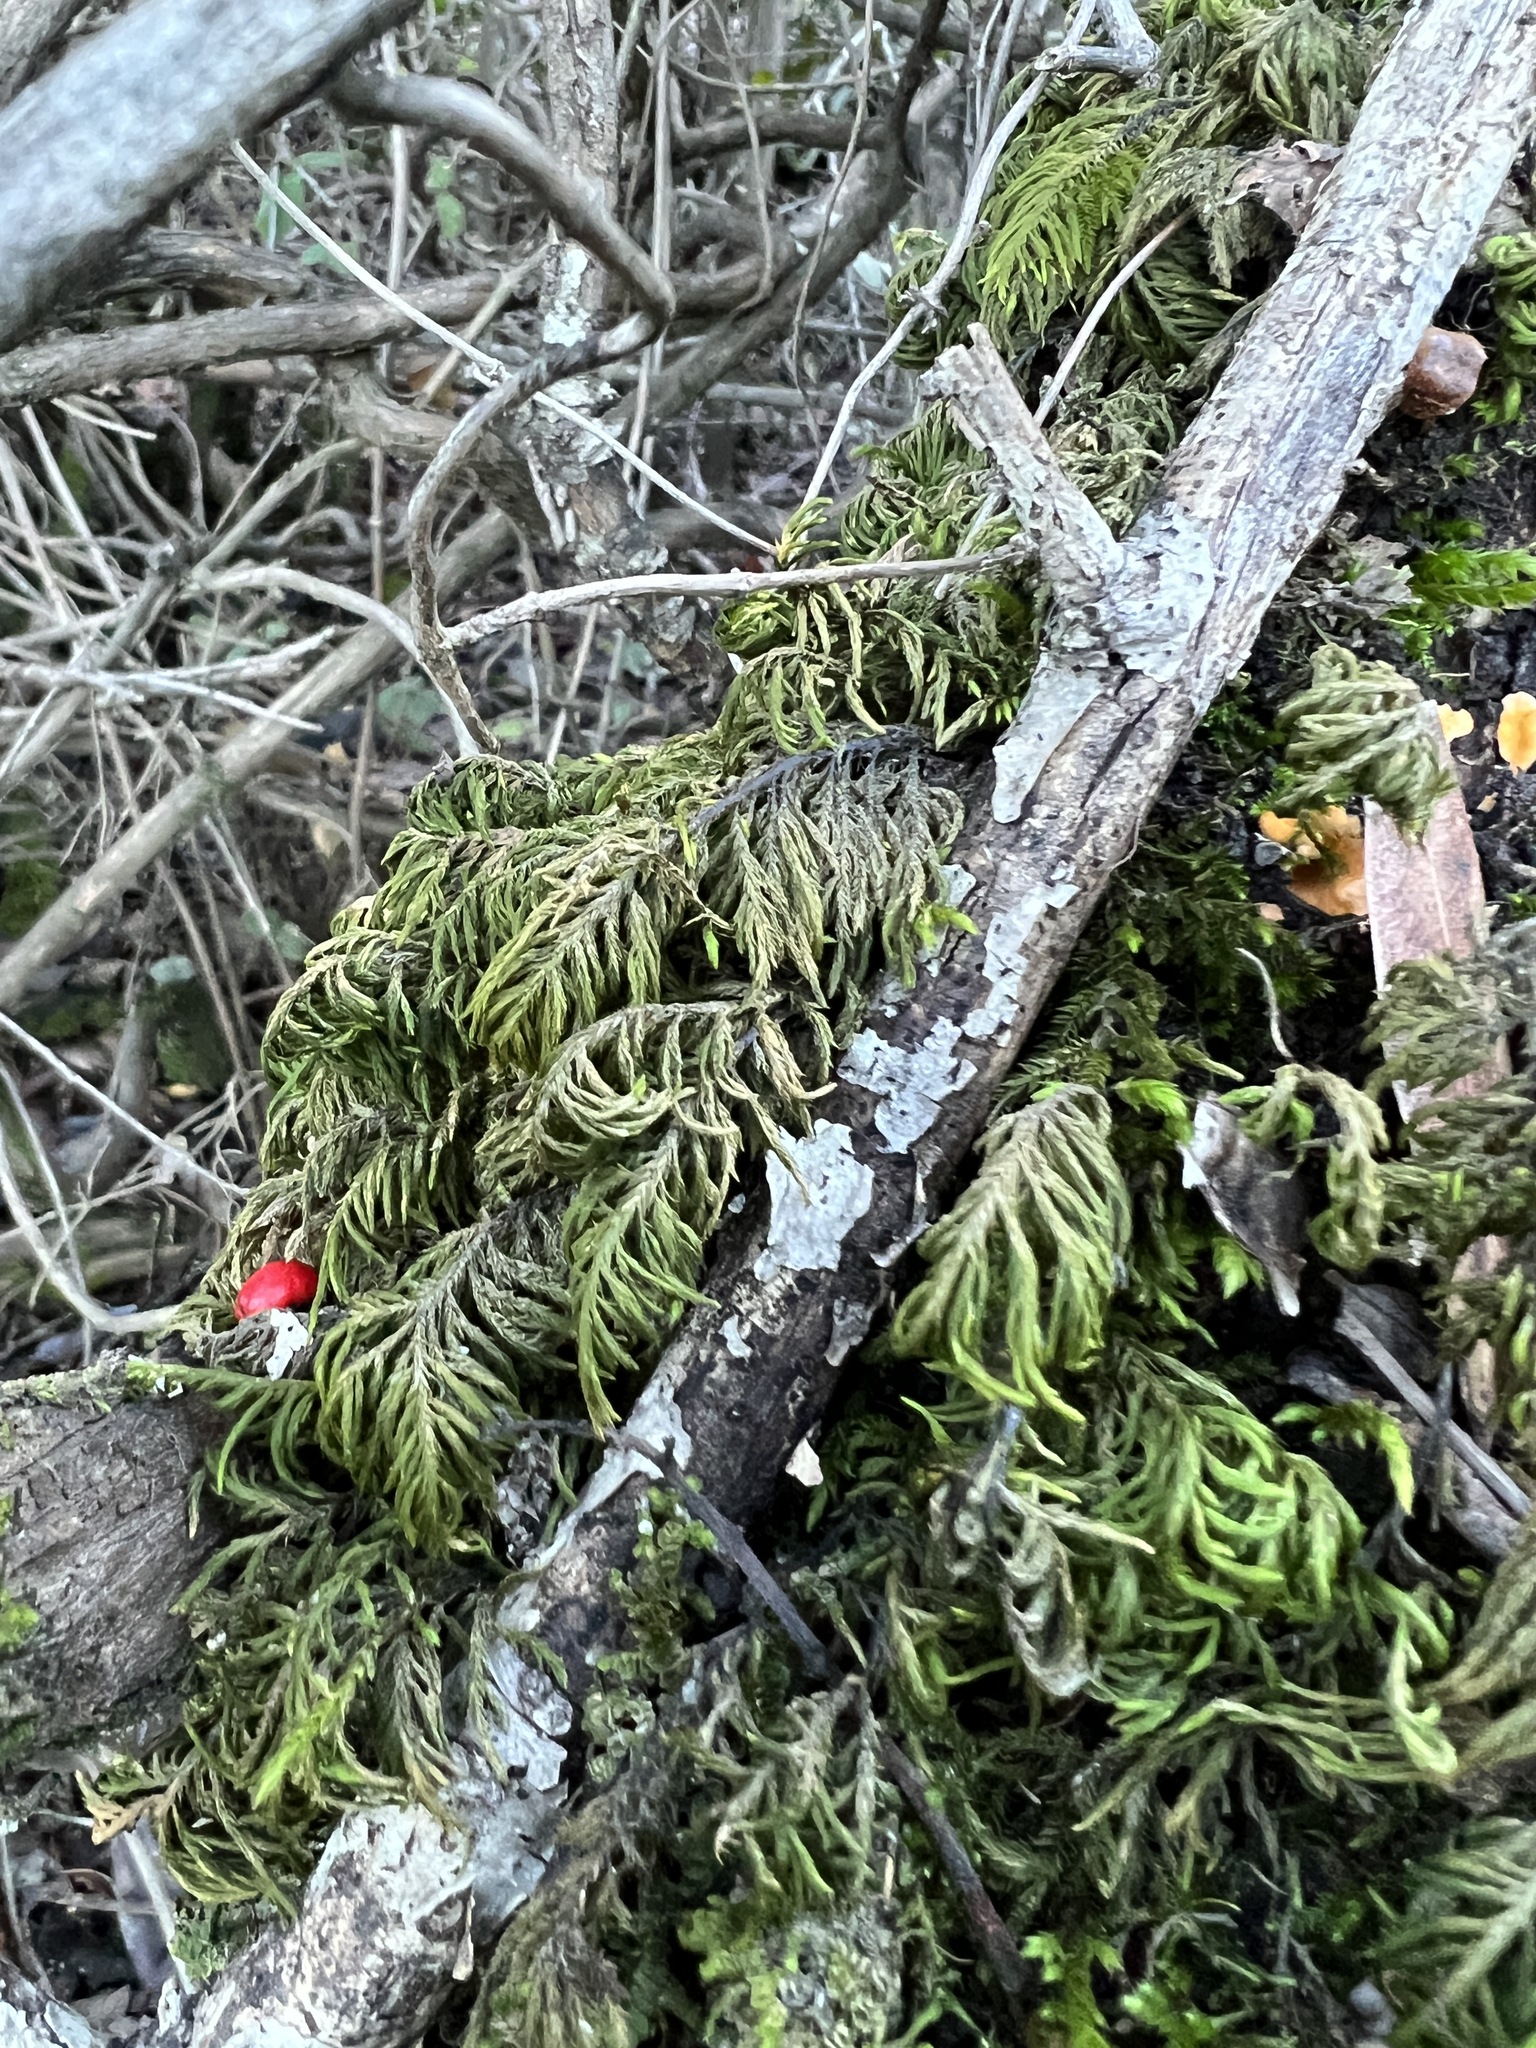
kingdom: Plantae
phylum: Bryophyta
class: Bryopsida
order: Hypnales
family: Cryphaeaceae
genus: Dendroalsia
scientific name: Dendroalsia abietina
